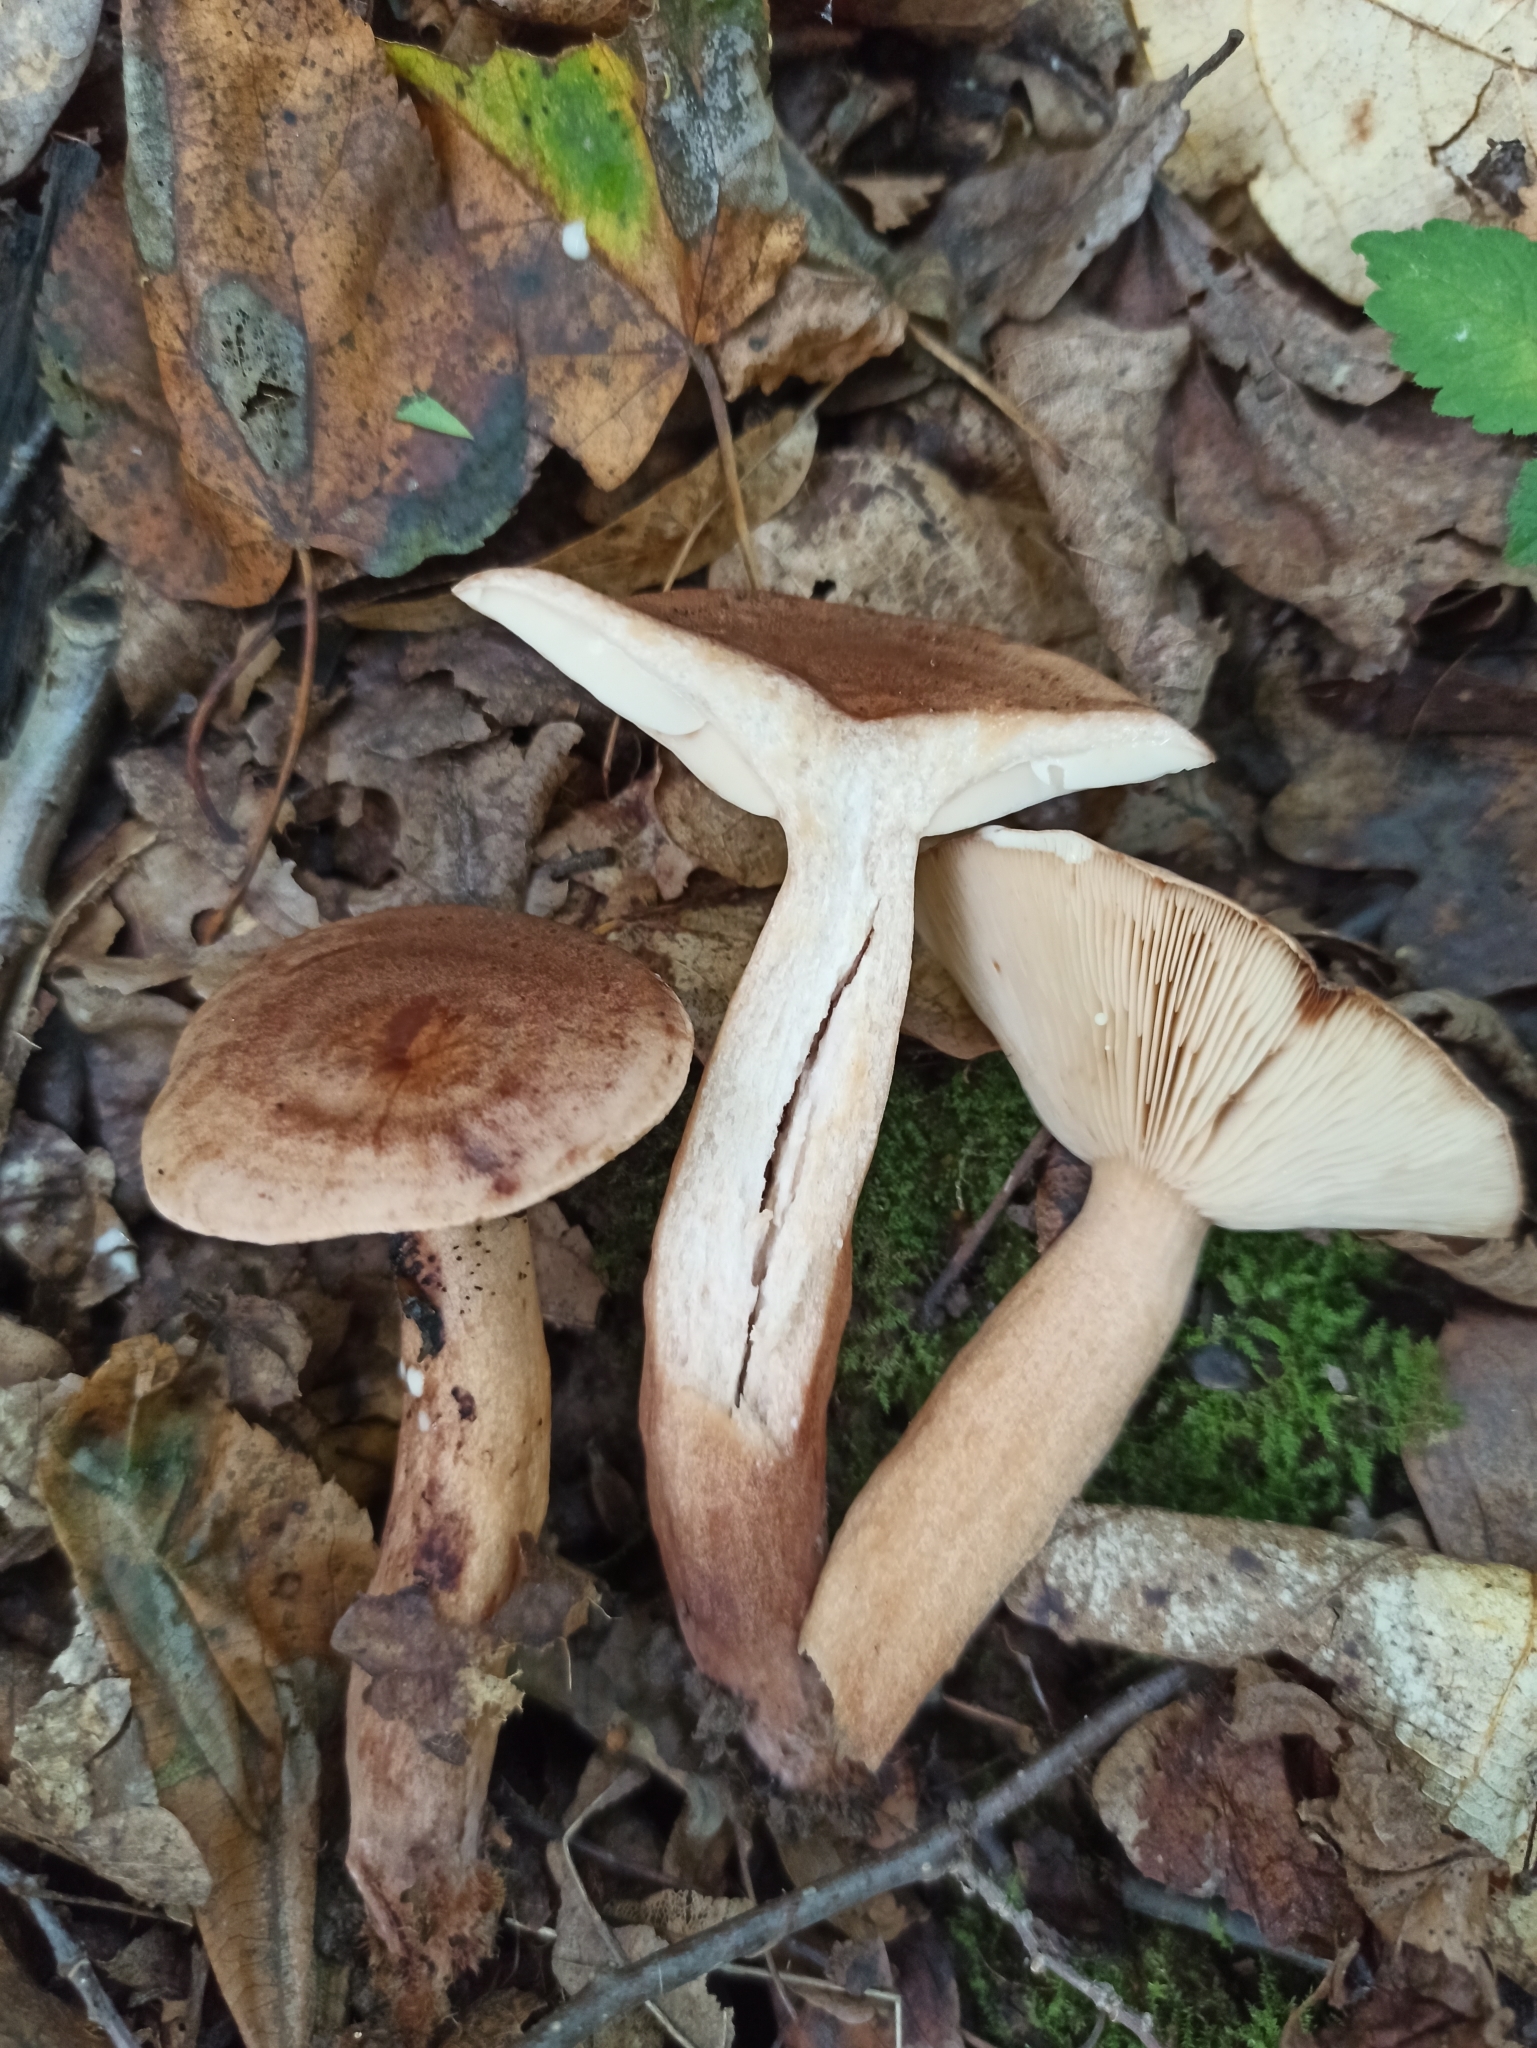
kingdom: Fungi
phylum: Basidiomycota
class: Agaricomycetes
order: Russulales
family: Russulaceae
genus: Lactarius
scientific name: Lactarius quietus
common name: Oak milk-cap
